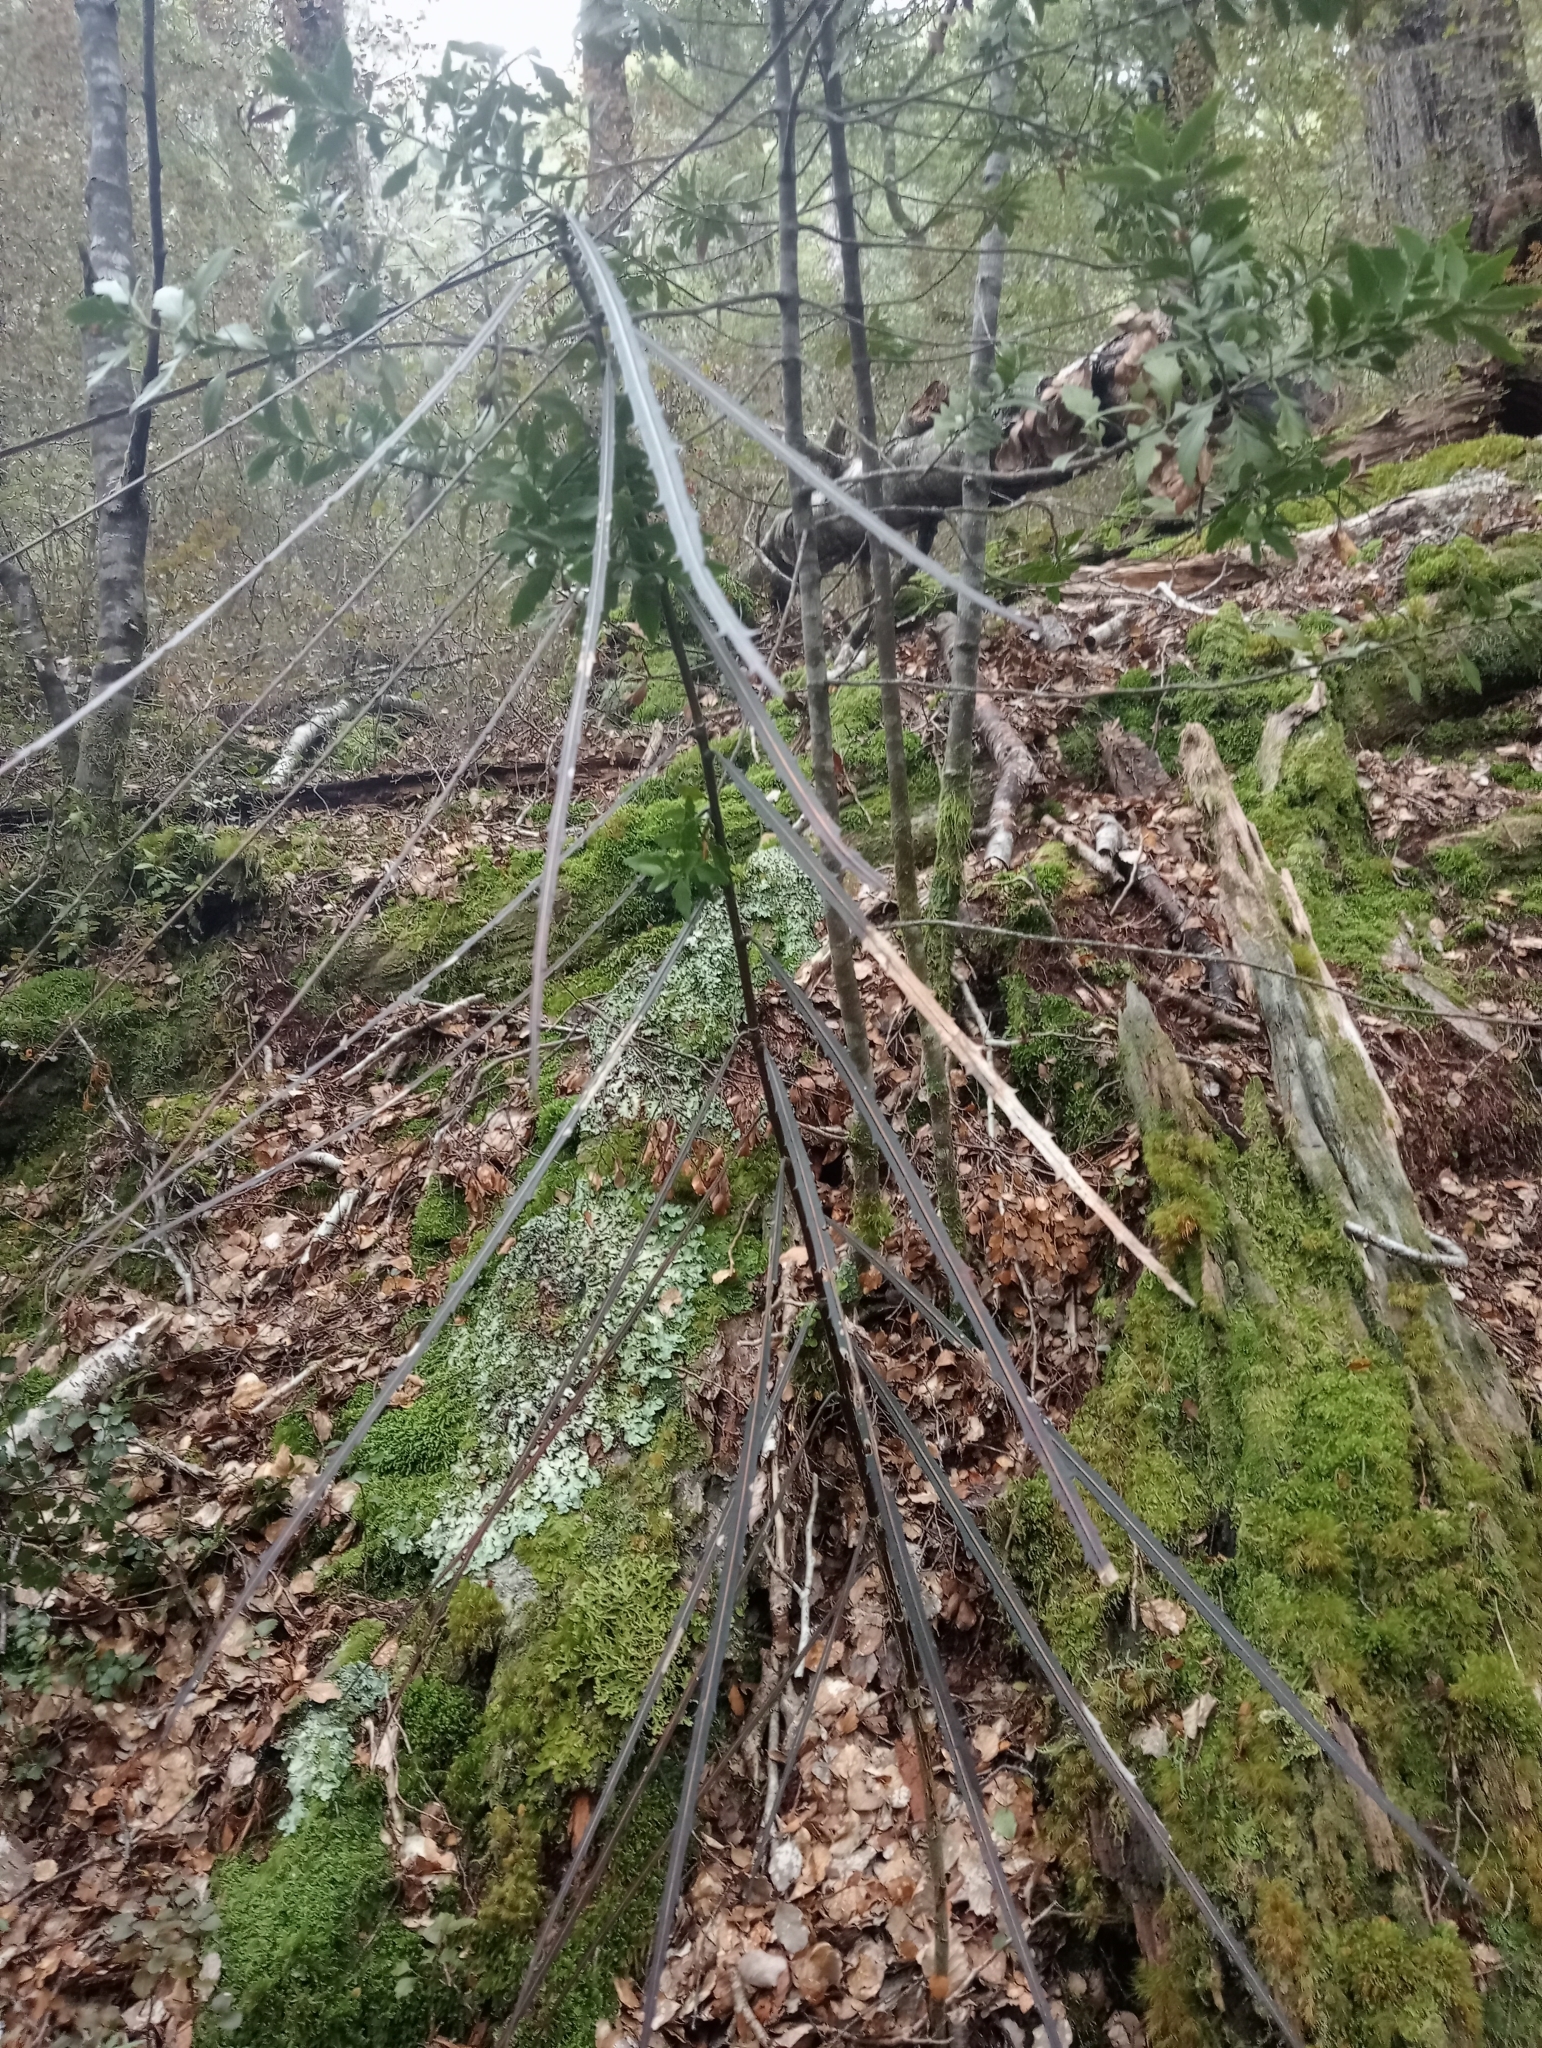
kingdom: Plantae
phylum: Tracheophyta
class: Magnoliopsida
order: Apiales
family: Araliaceae
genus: Pseudopanax
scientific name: Pseudopanax crassifolius
